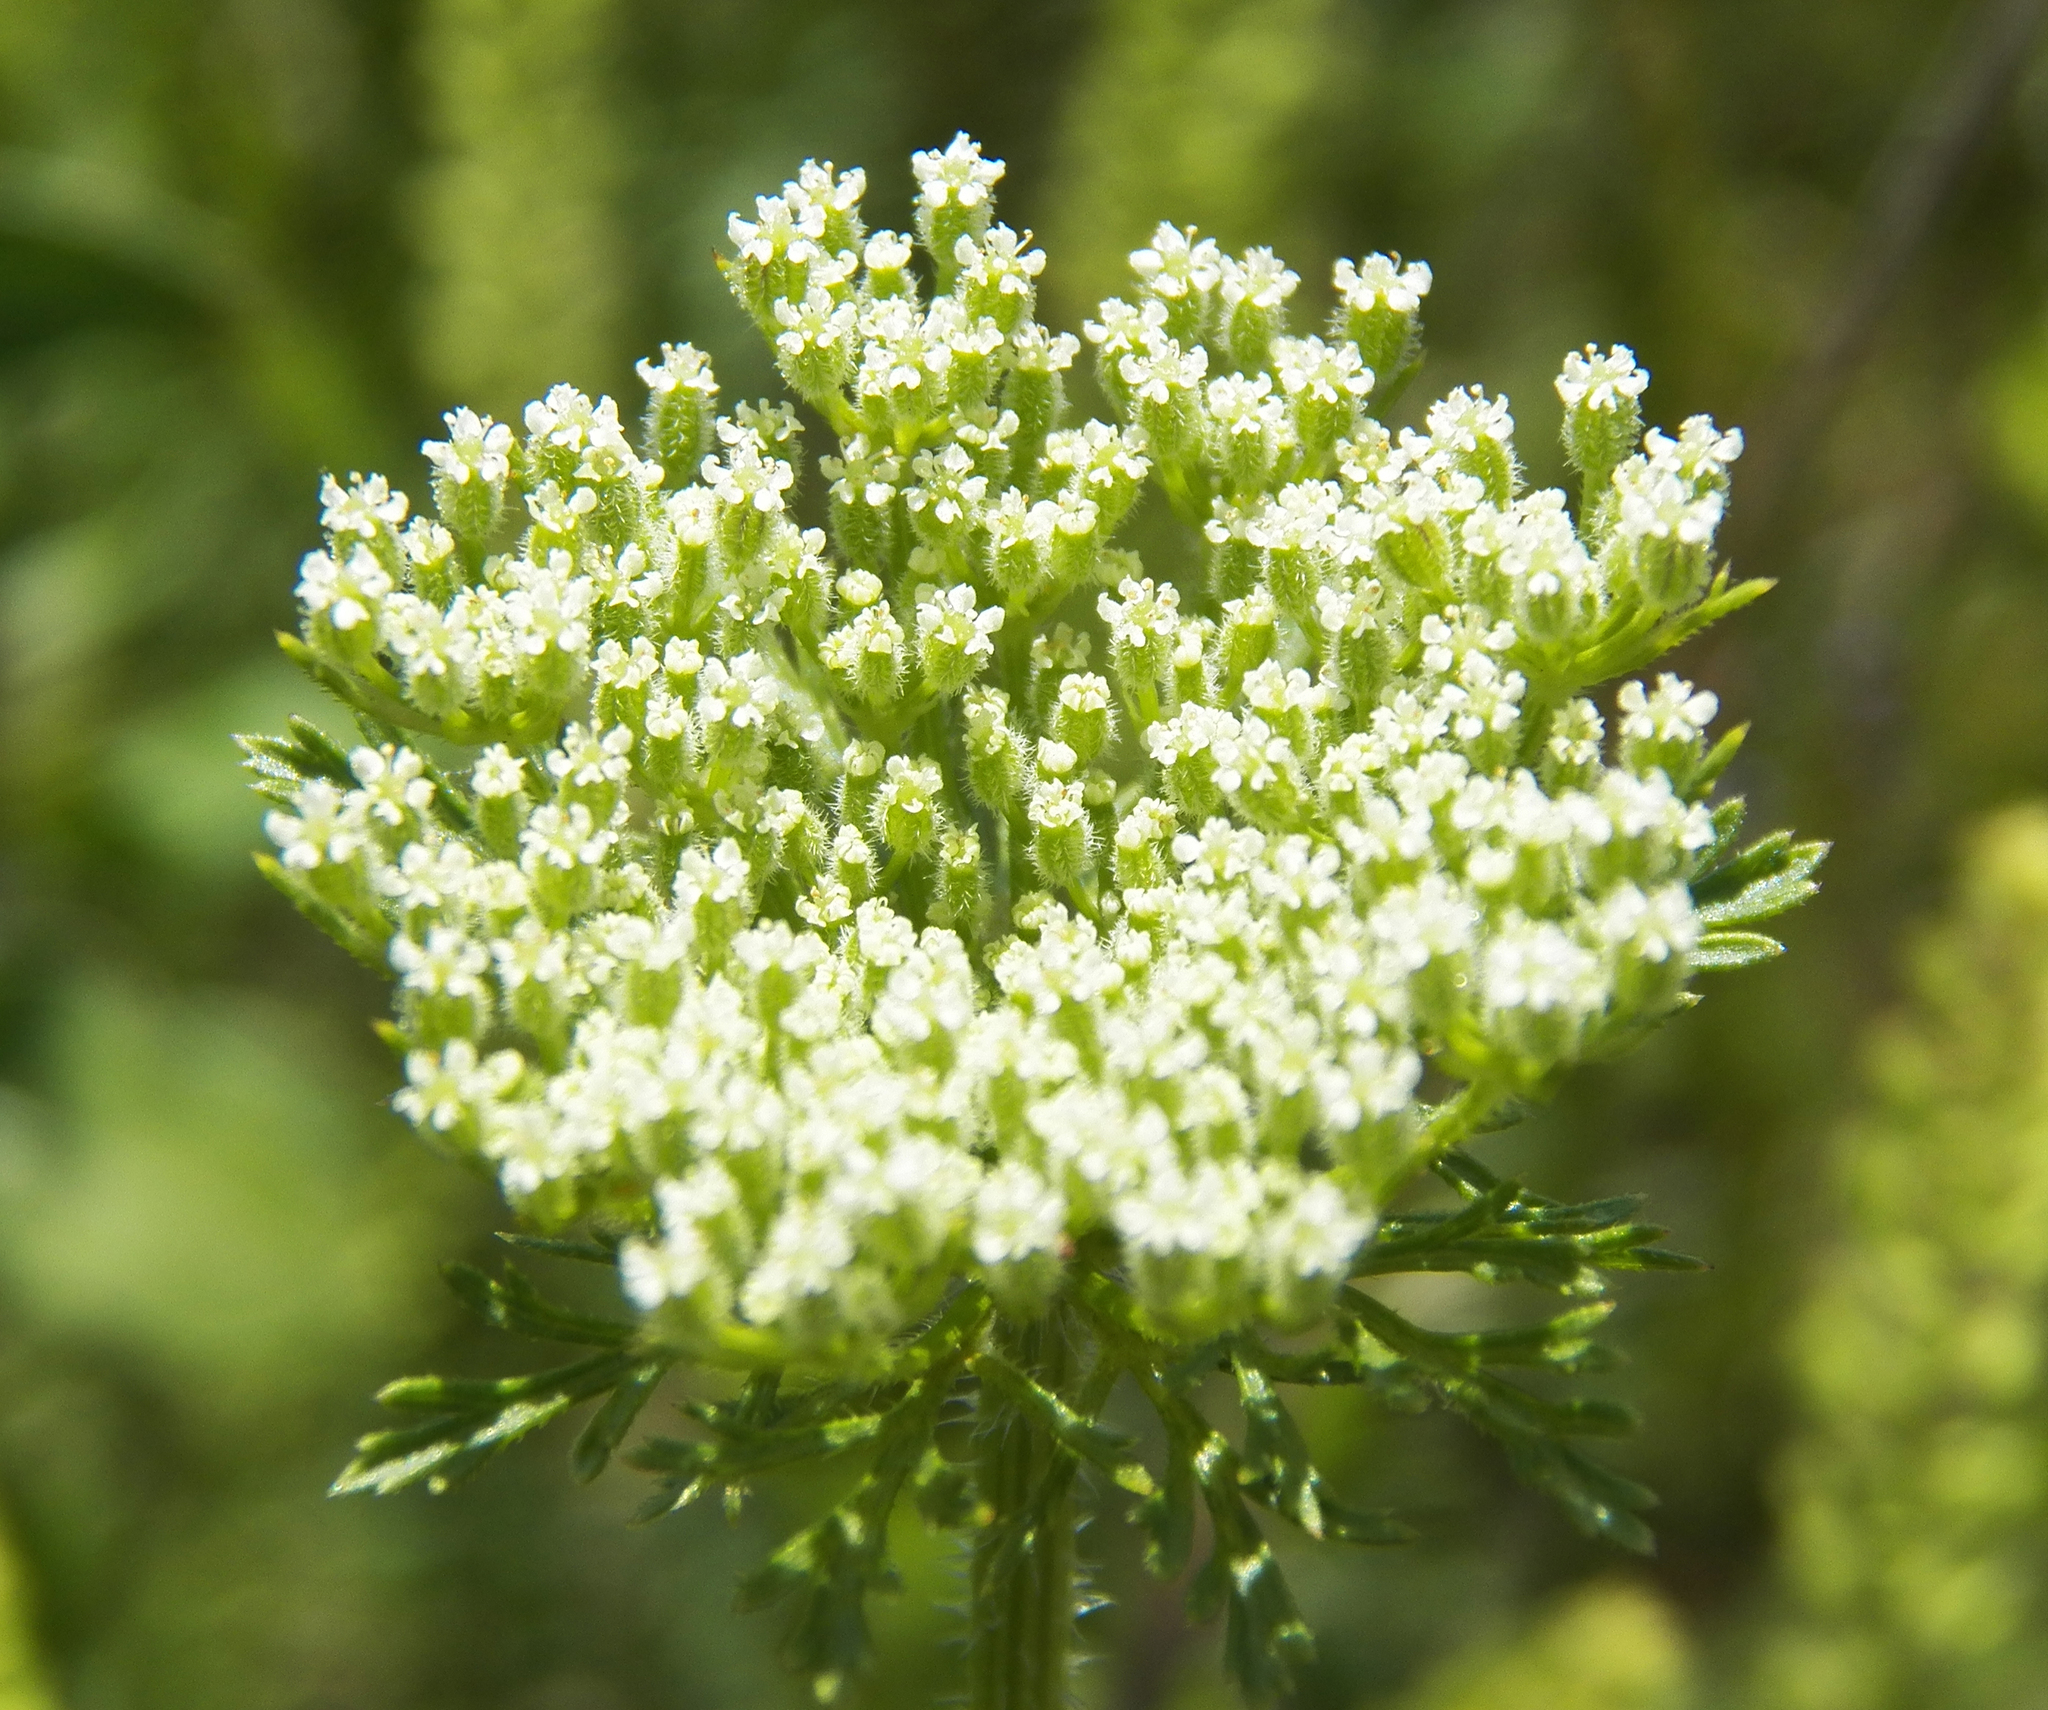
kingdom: Plantae
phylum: Tracheophyta
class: Magnoliopsida
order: Apiales
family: Apiaceae
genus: Daucus
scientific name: Daucus pusillus
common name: Southwest wild carrot
